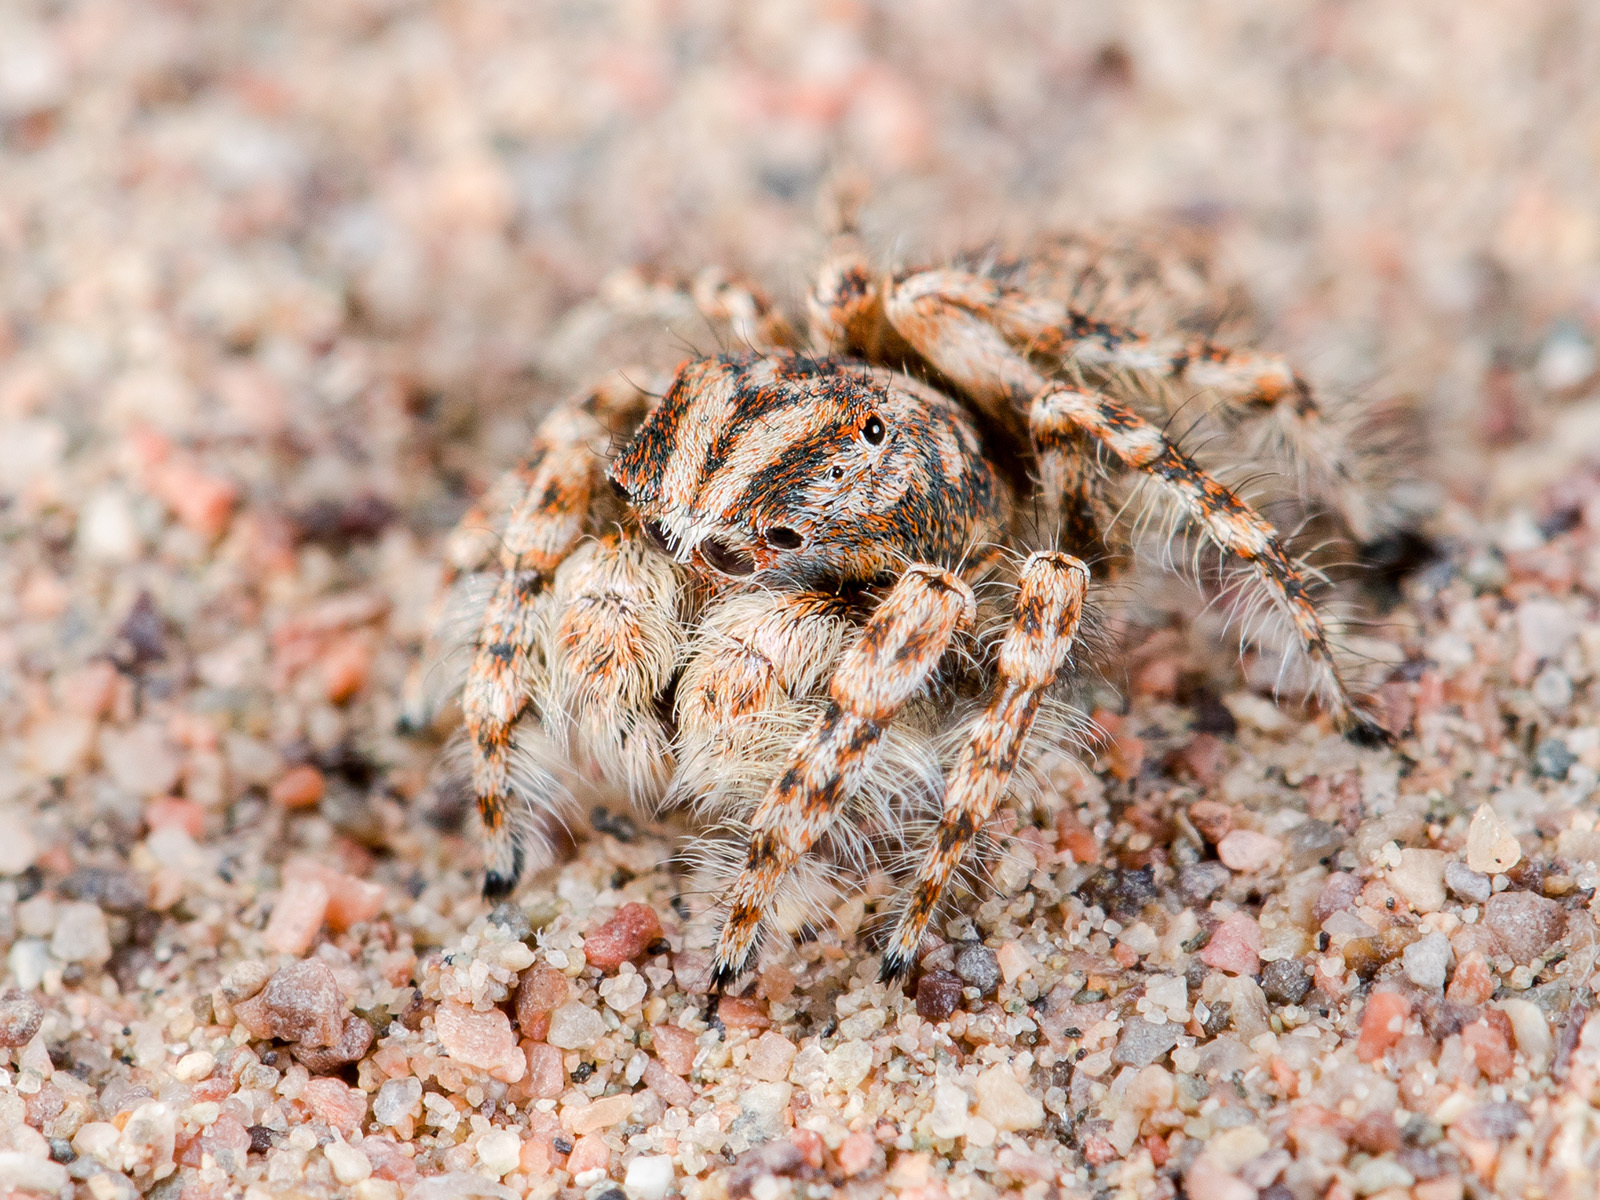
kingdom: Animalia
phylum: Arthropoda
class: Arachnida
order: Araneae
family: Salticidae
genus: Yllenus
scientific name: Yllenus uiguricus
